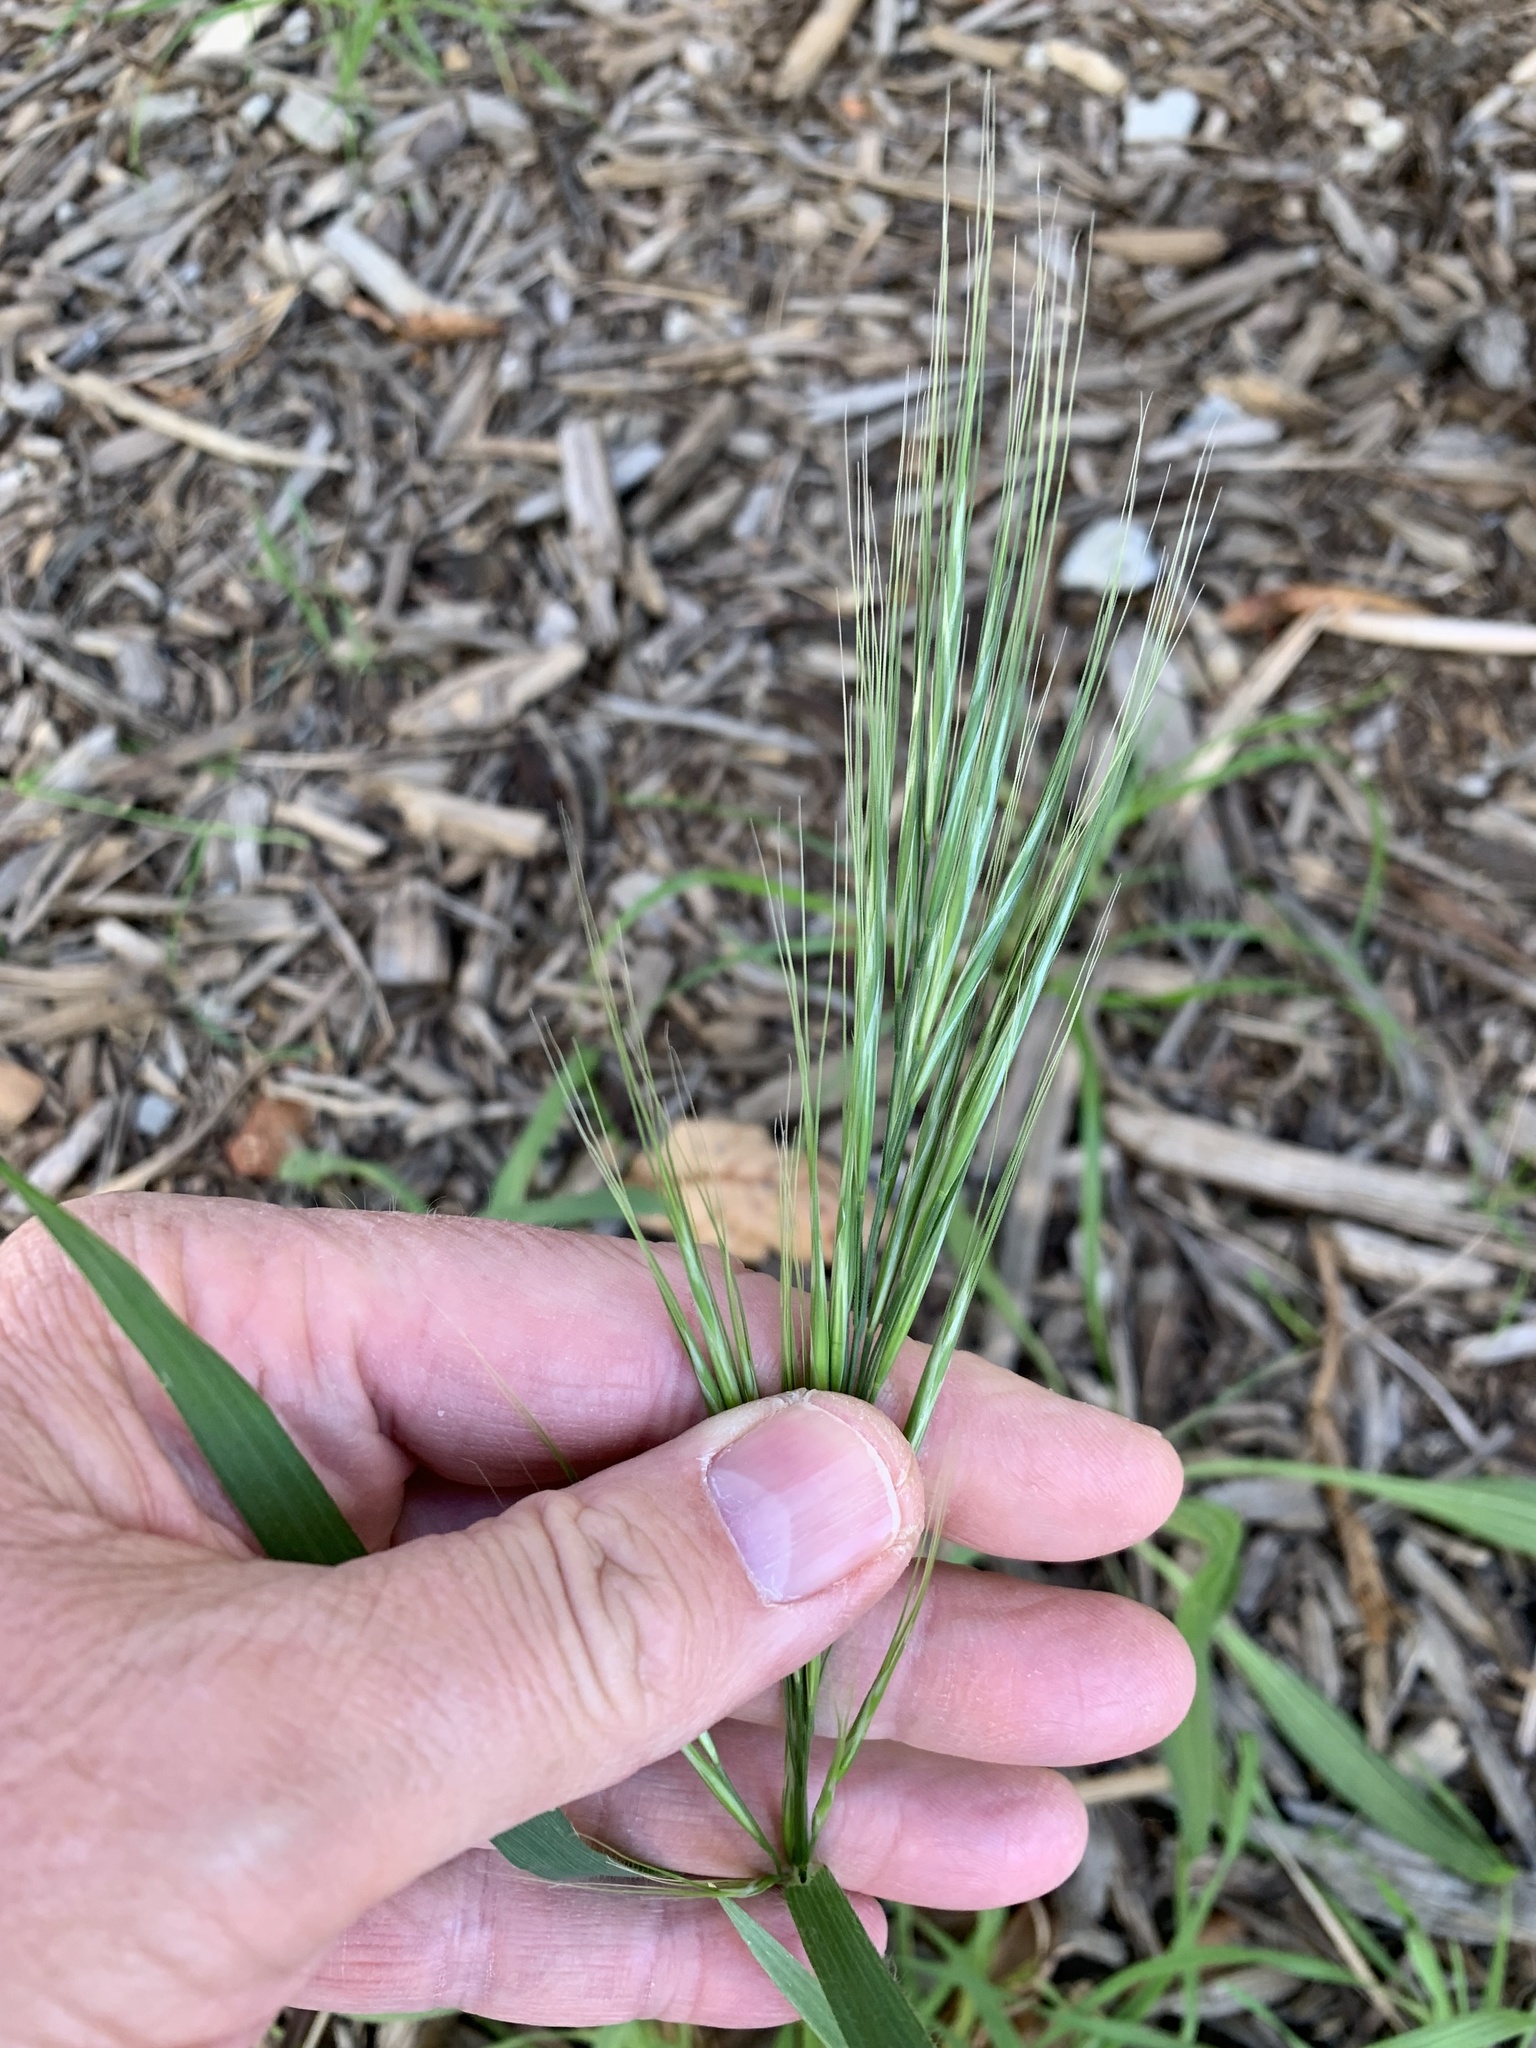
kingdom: Plantae
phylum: Tracheophyta
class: Liliopsida
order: Poales
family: Poaceae
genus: Bromus
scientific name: Bromus diandrus
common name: Ripgut brome
